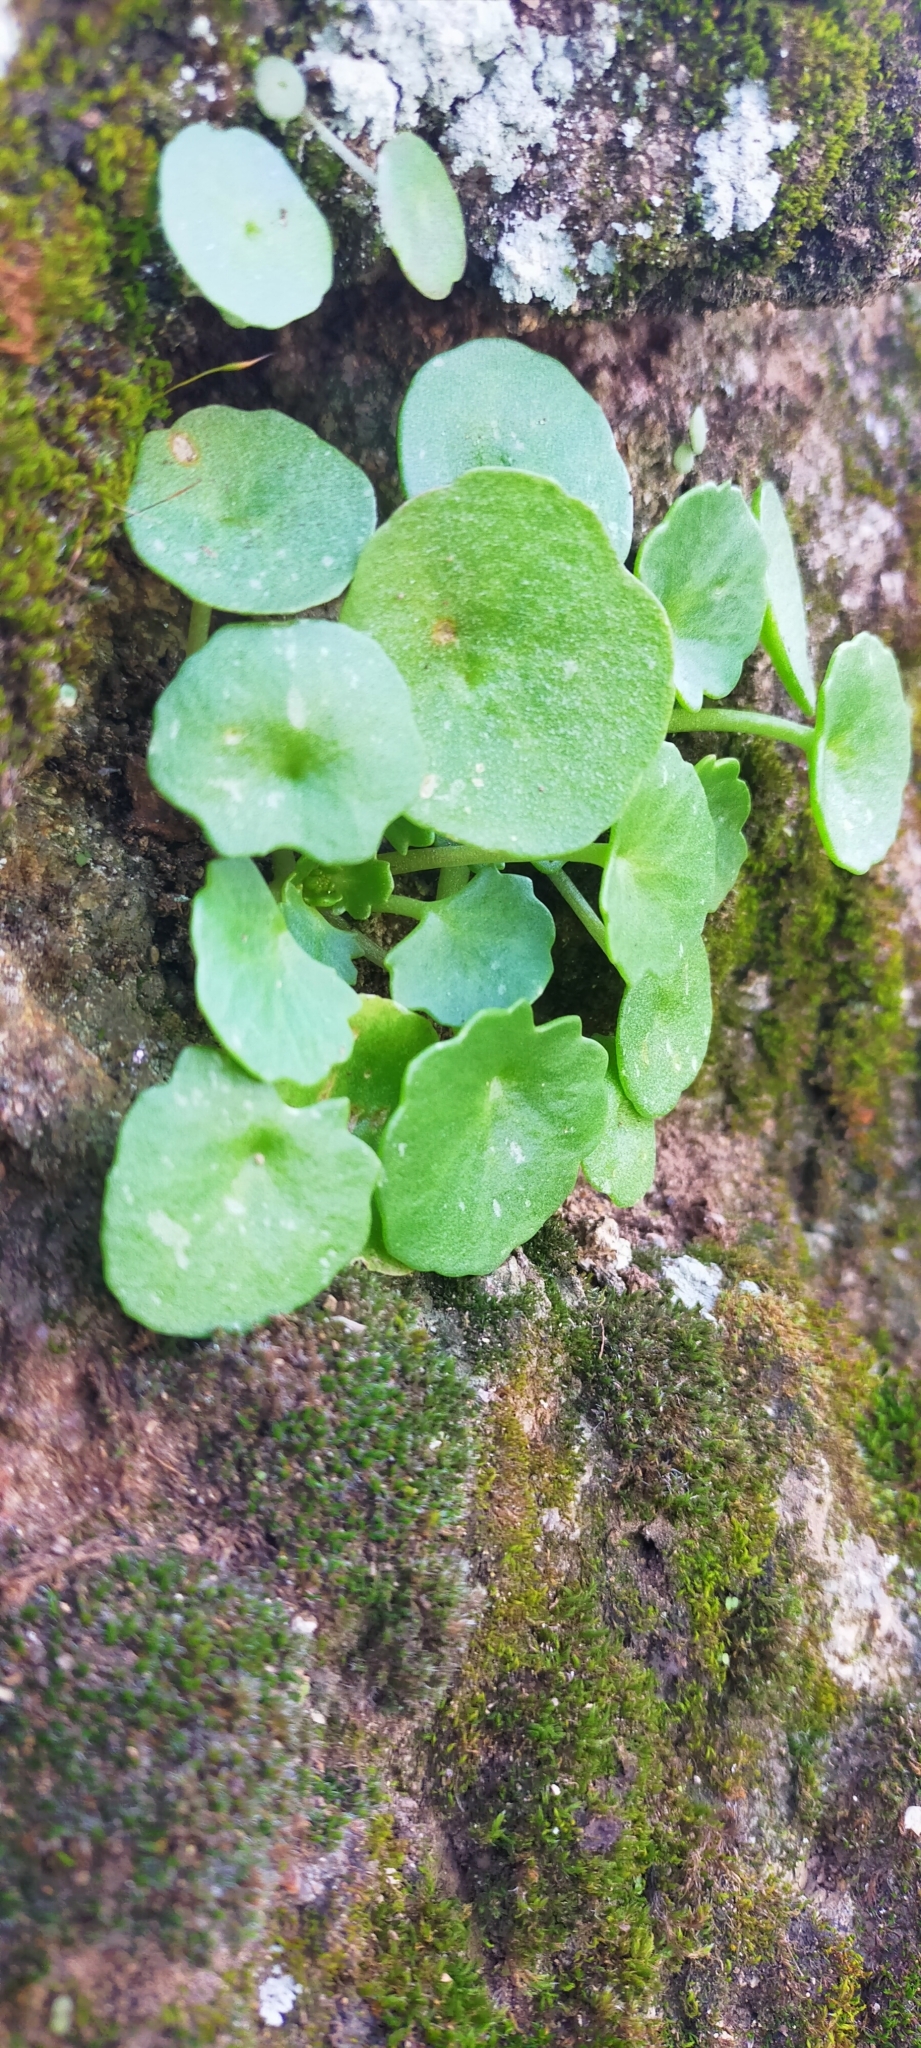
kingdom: Plantae
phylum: Tracheophyta
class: Magnoliopsida
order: Saxifragales
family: Crassulaceae
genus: Umbilicus
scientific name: Umbilicus rupestris
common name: Navelwort
